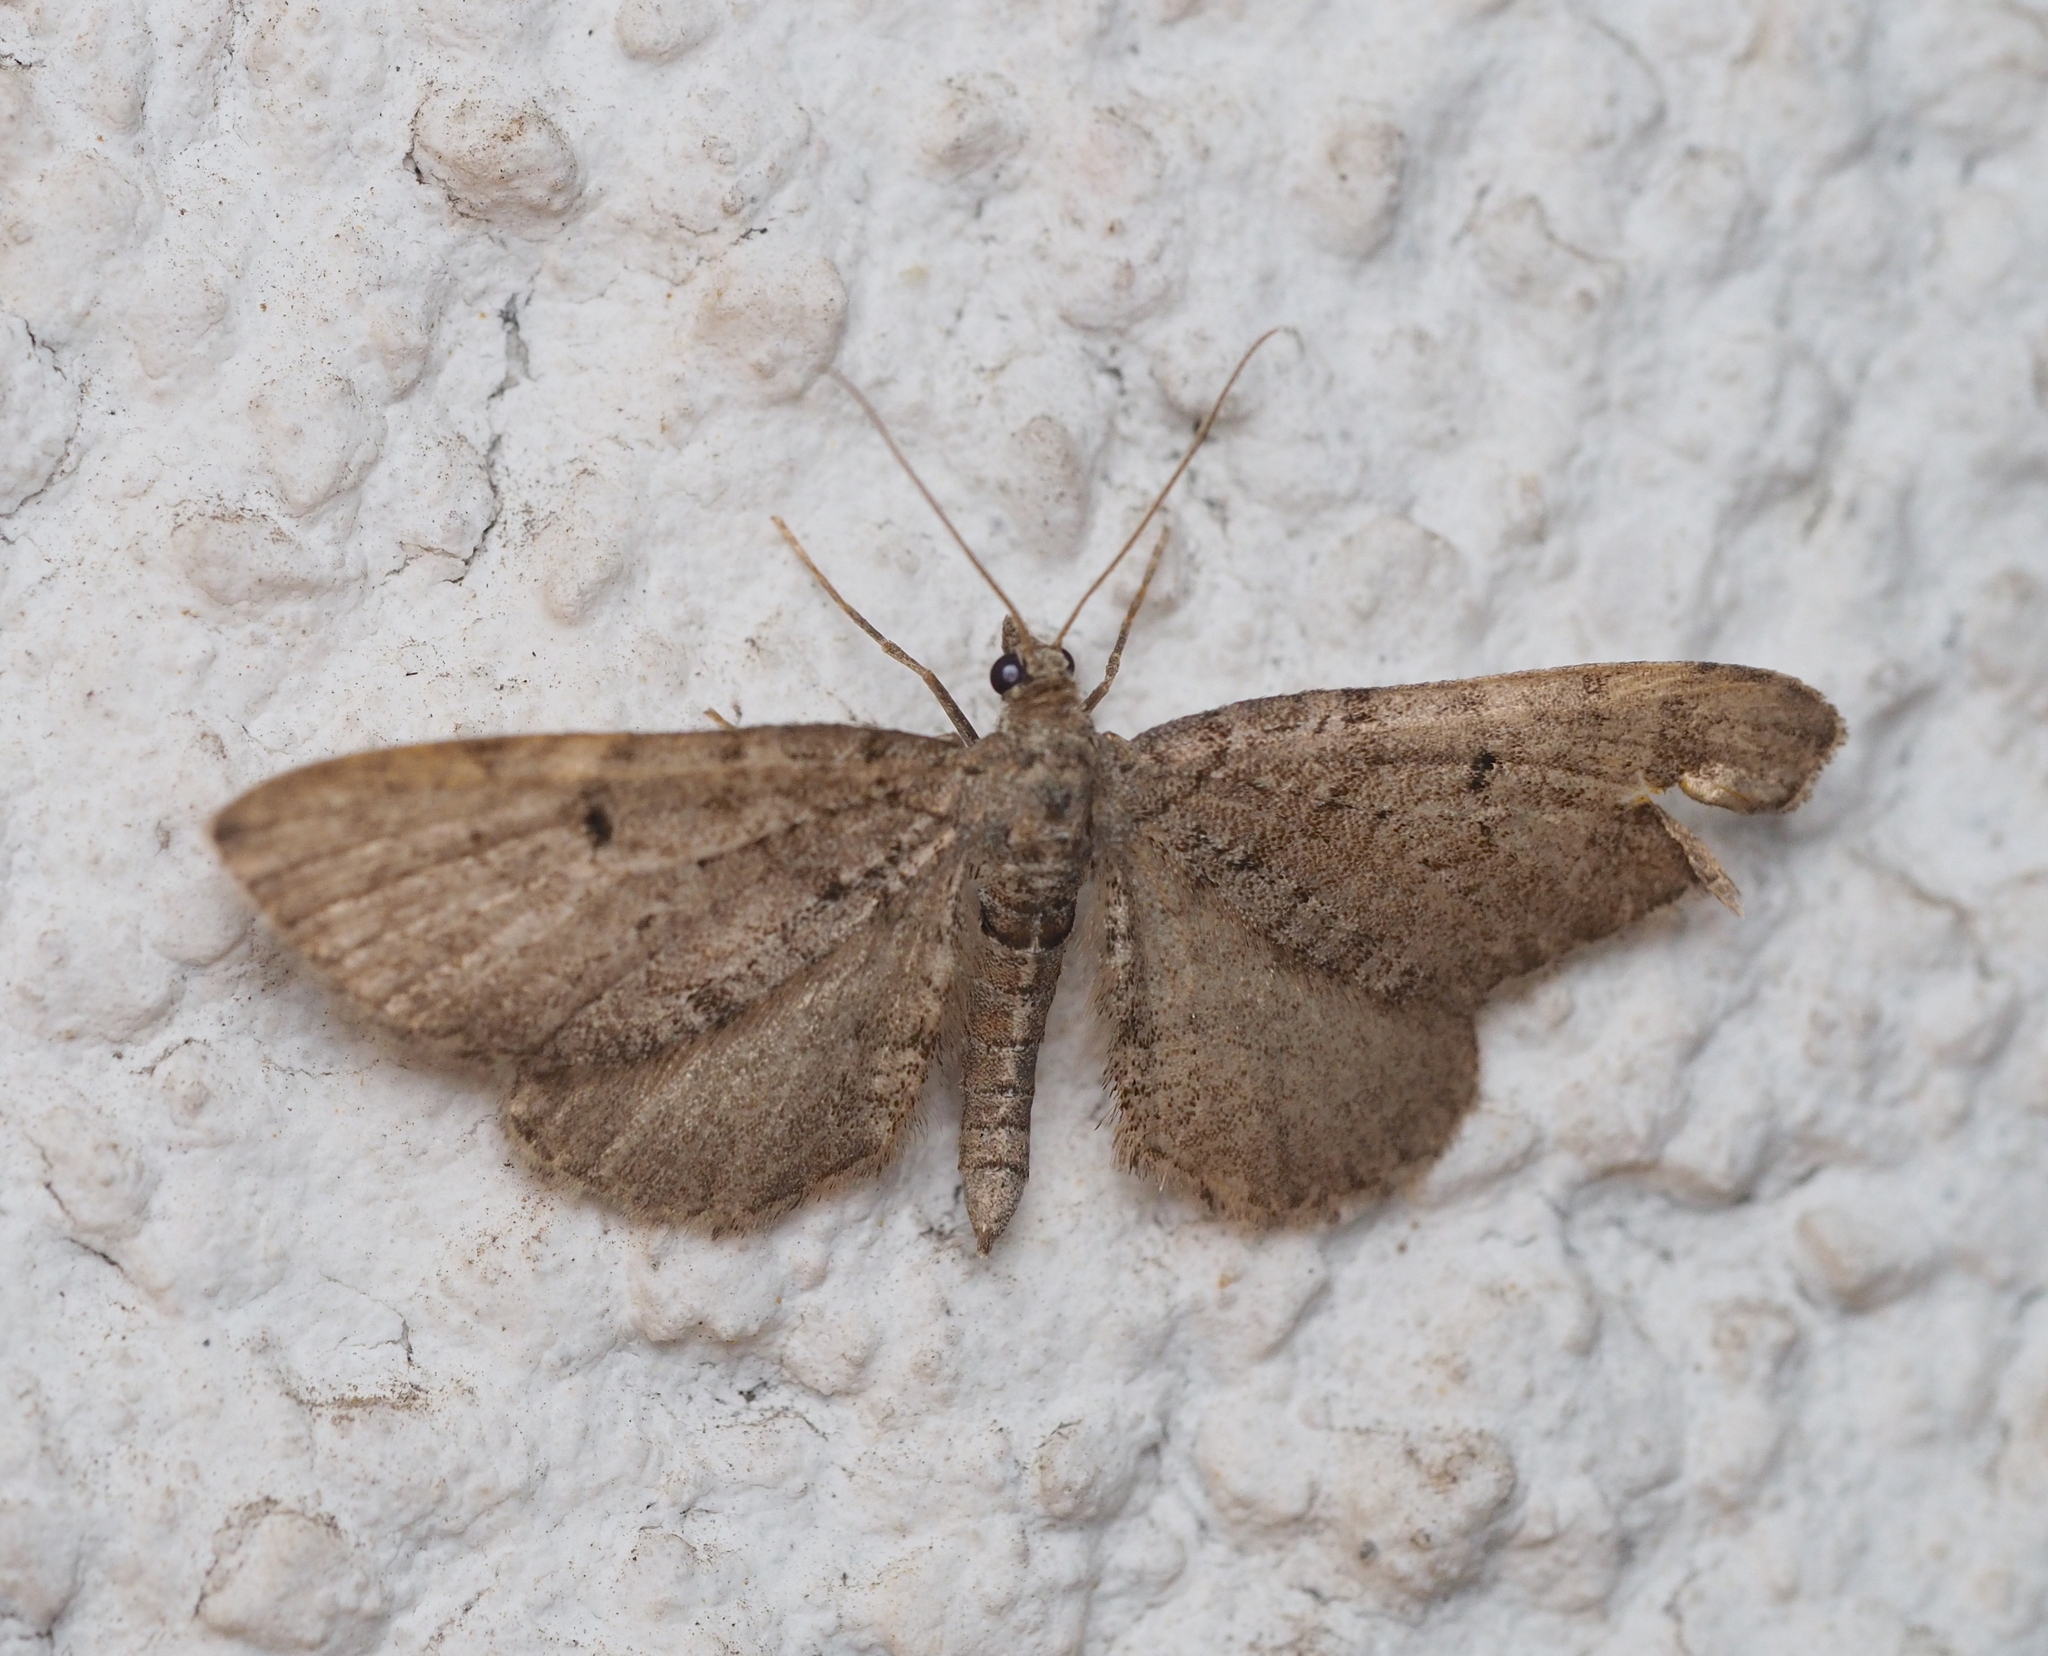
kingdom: Animalia
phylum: Arthropoda
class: Insecta
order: Lepidoptera
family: Geometridae
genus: Eupithecia
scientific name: Eupithecia intricata
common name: Freyers pug
